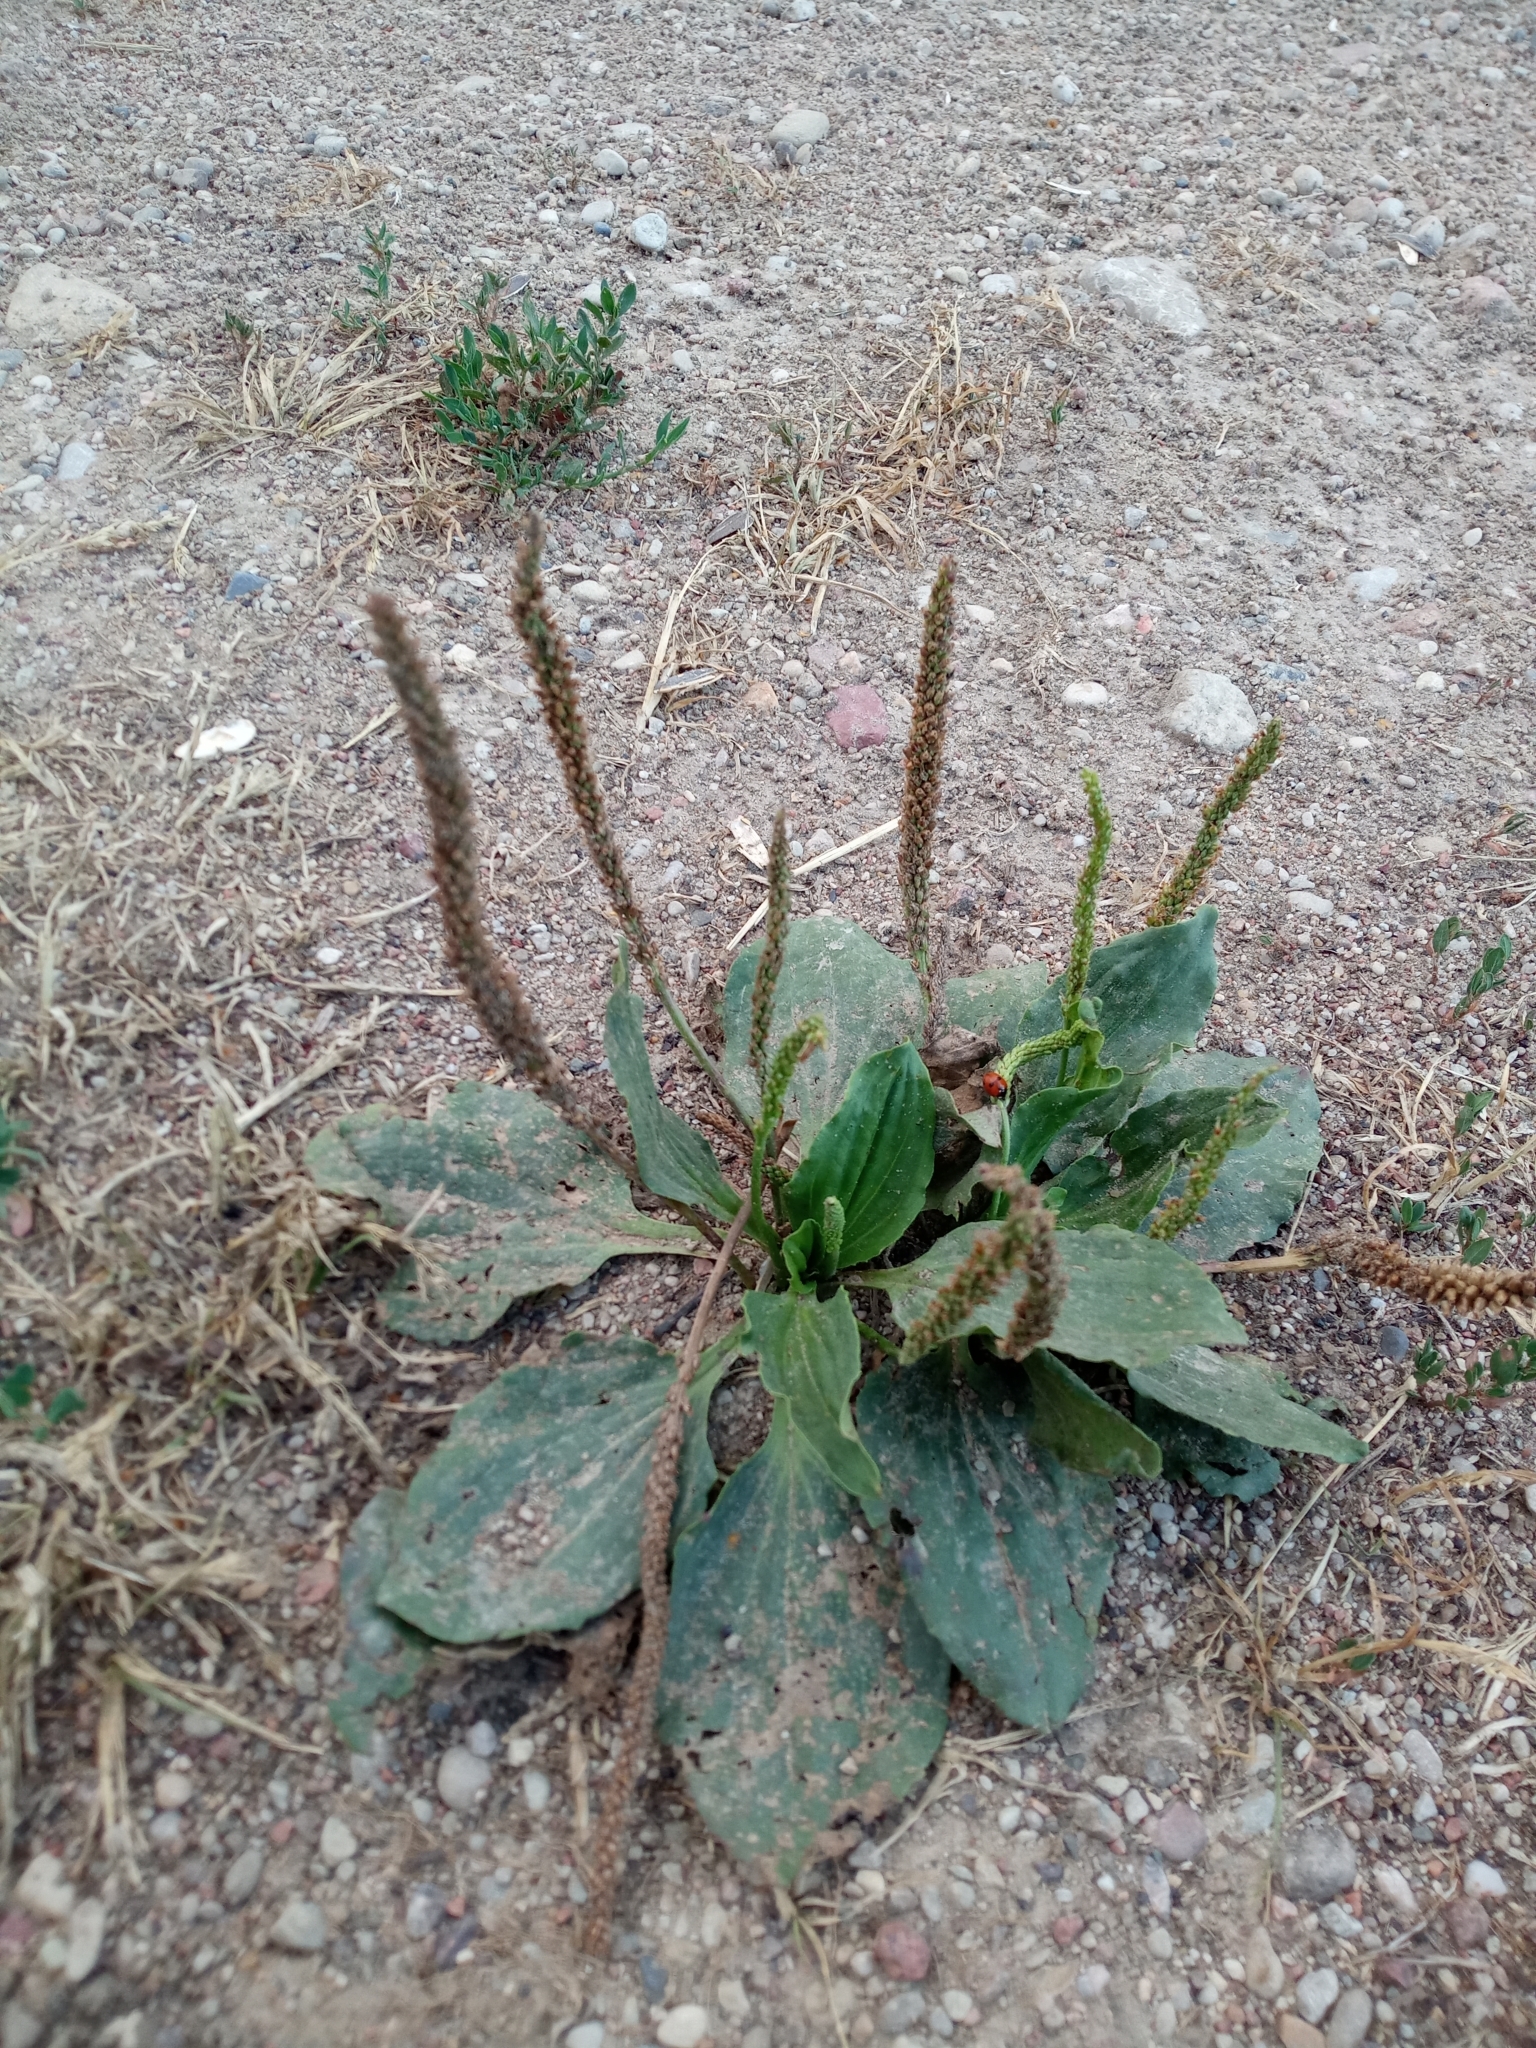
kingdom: Plantae
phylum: Tracheophyta
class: Magnoliopsida
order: Lamiales
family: Plantaginaceae
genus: Plantago
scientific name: Plantago major
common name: Common plantain
